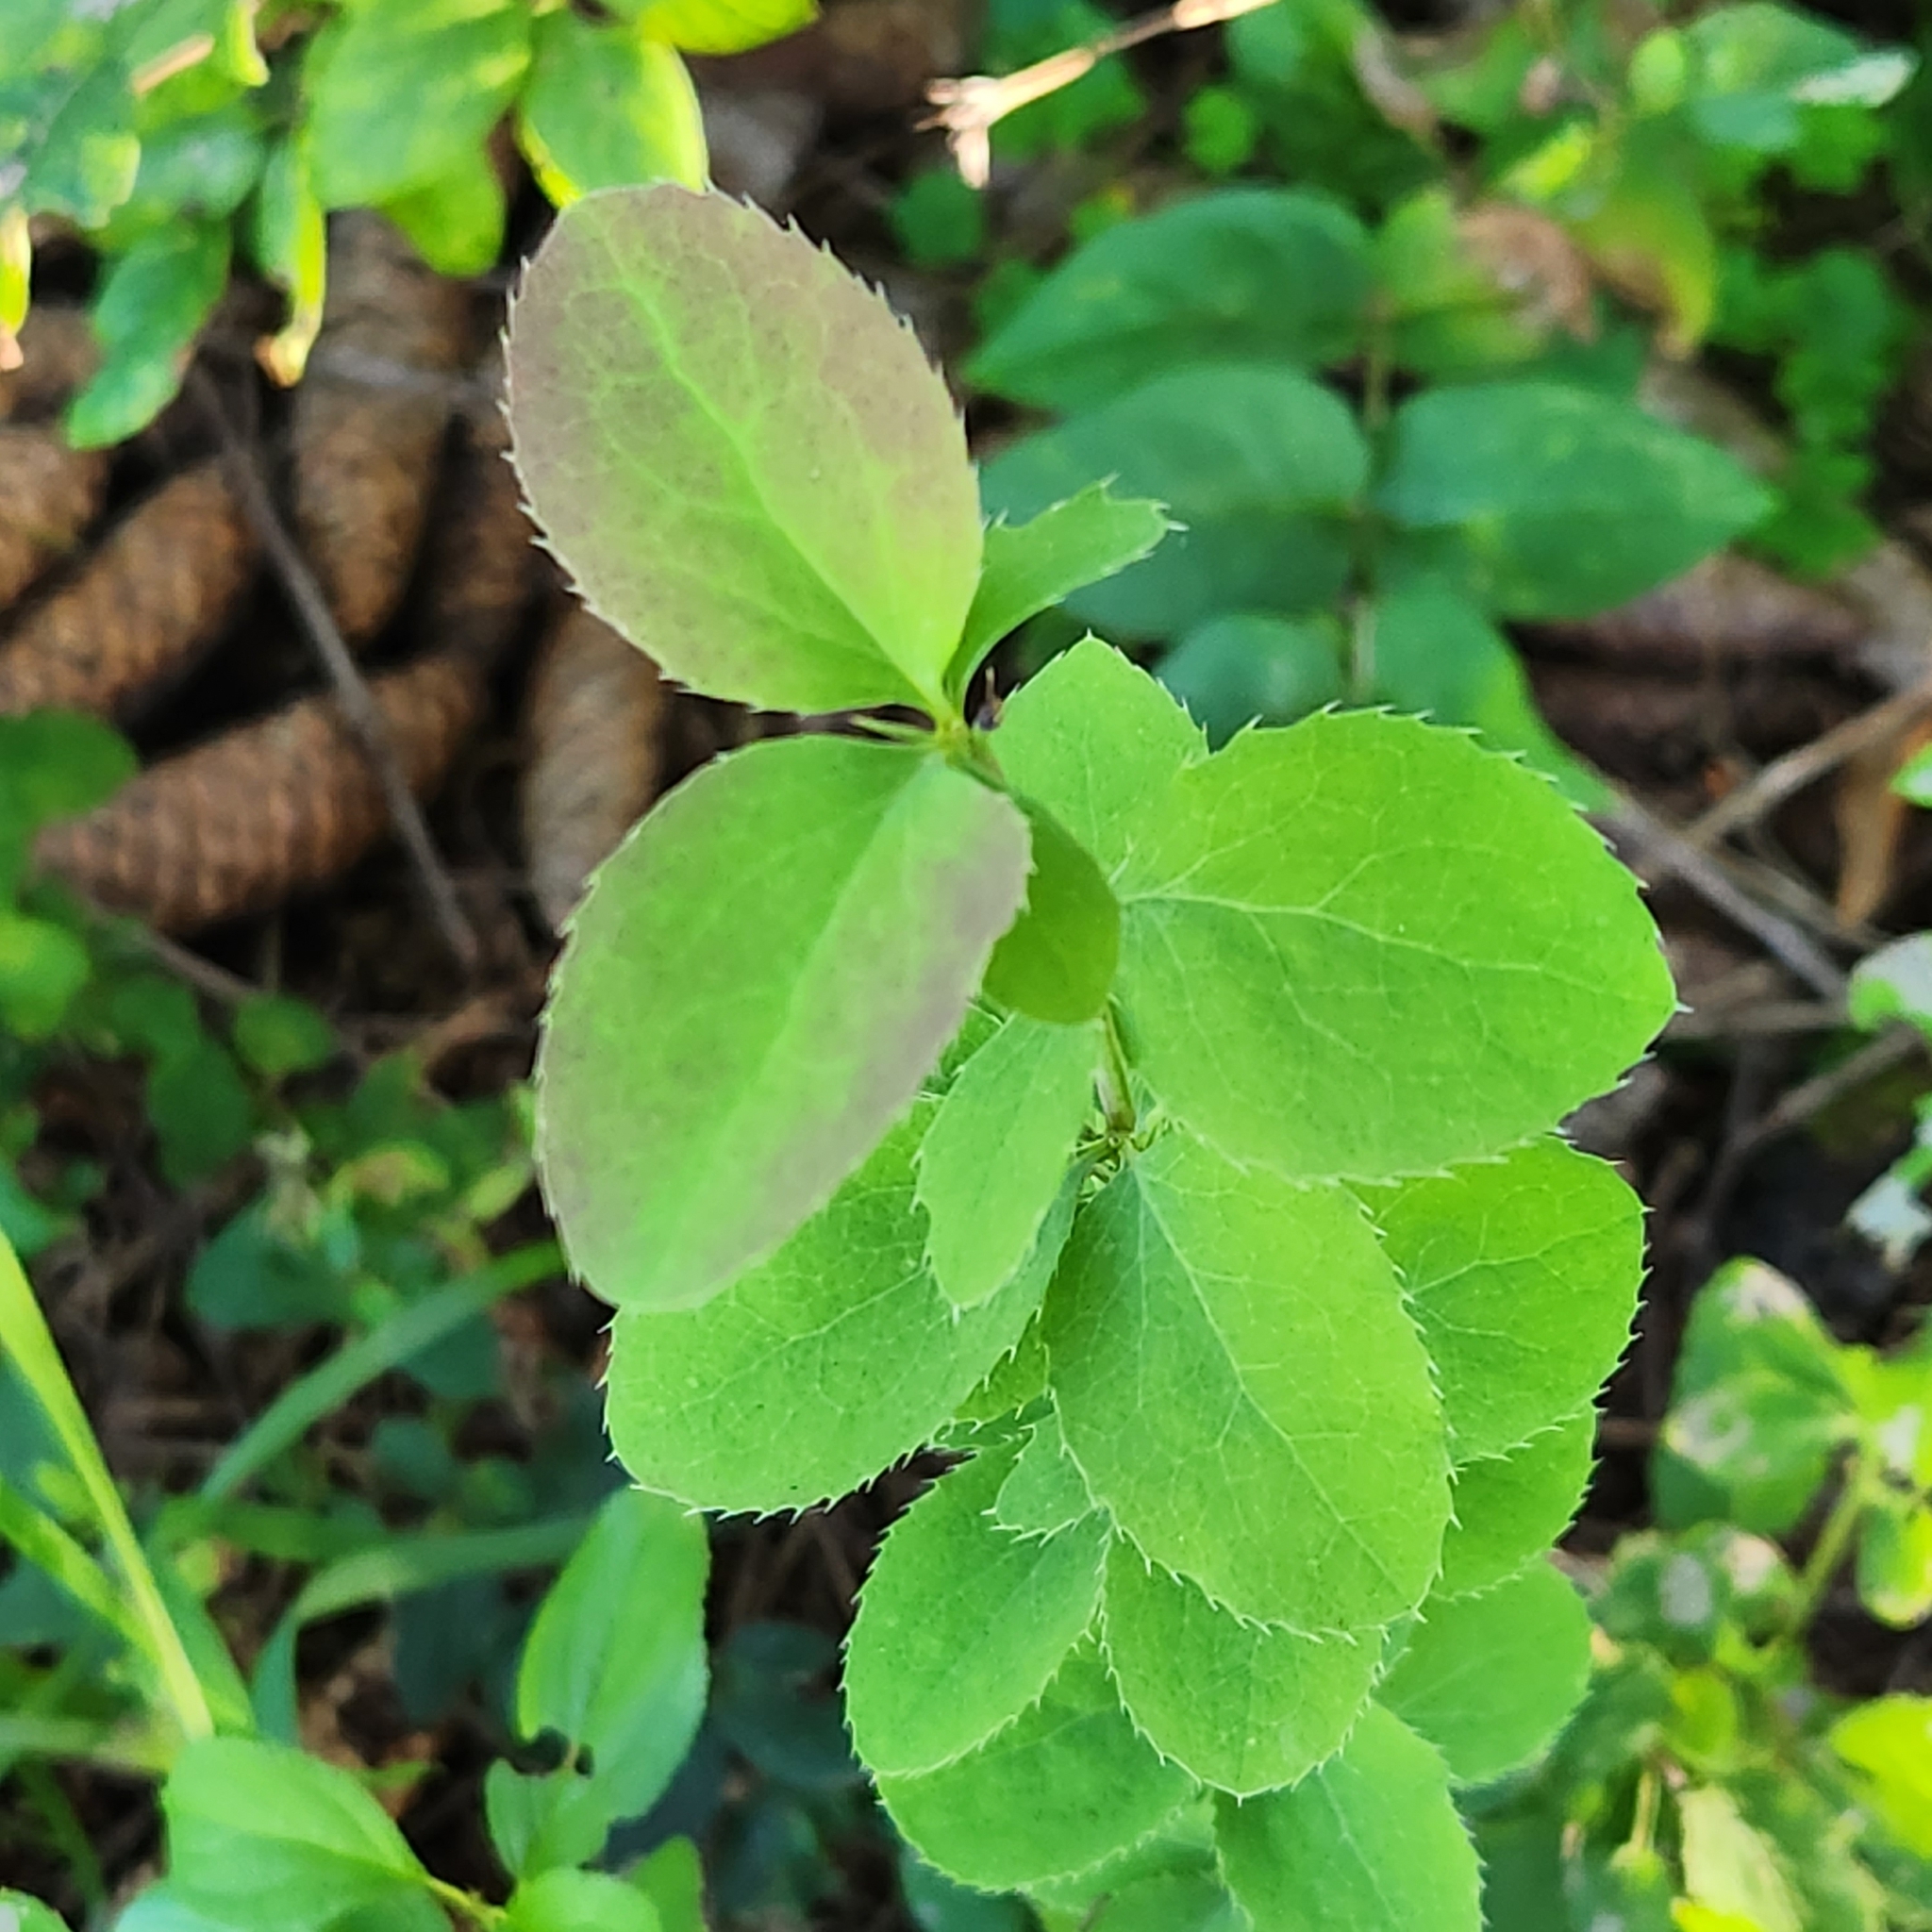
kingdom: Plantae
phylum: Tracheophyta
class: Magnoliopsida
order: Ranunculales
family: Berberidaceae
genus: Berberis
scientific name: Berberis vulgaris
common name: Barberry
